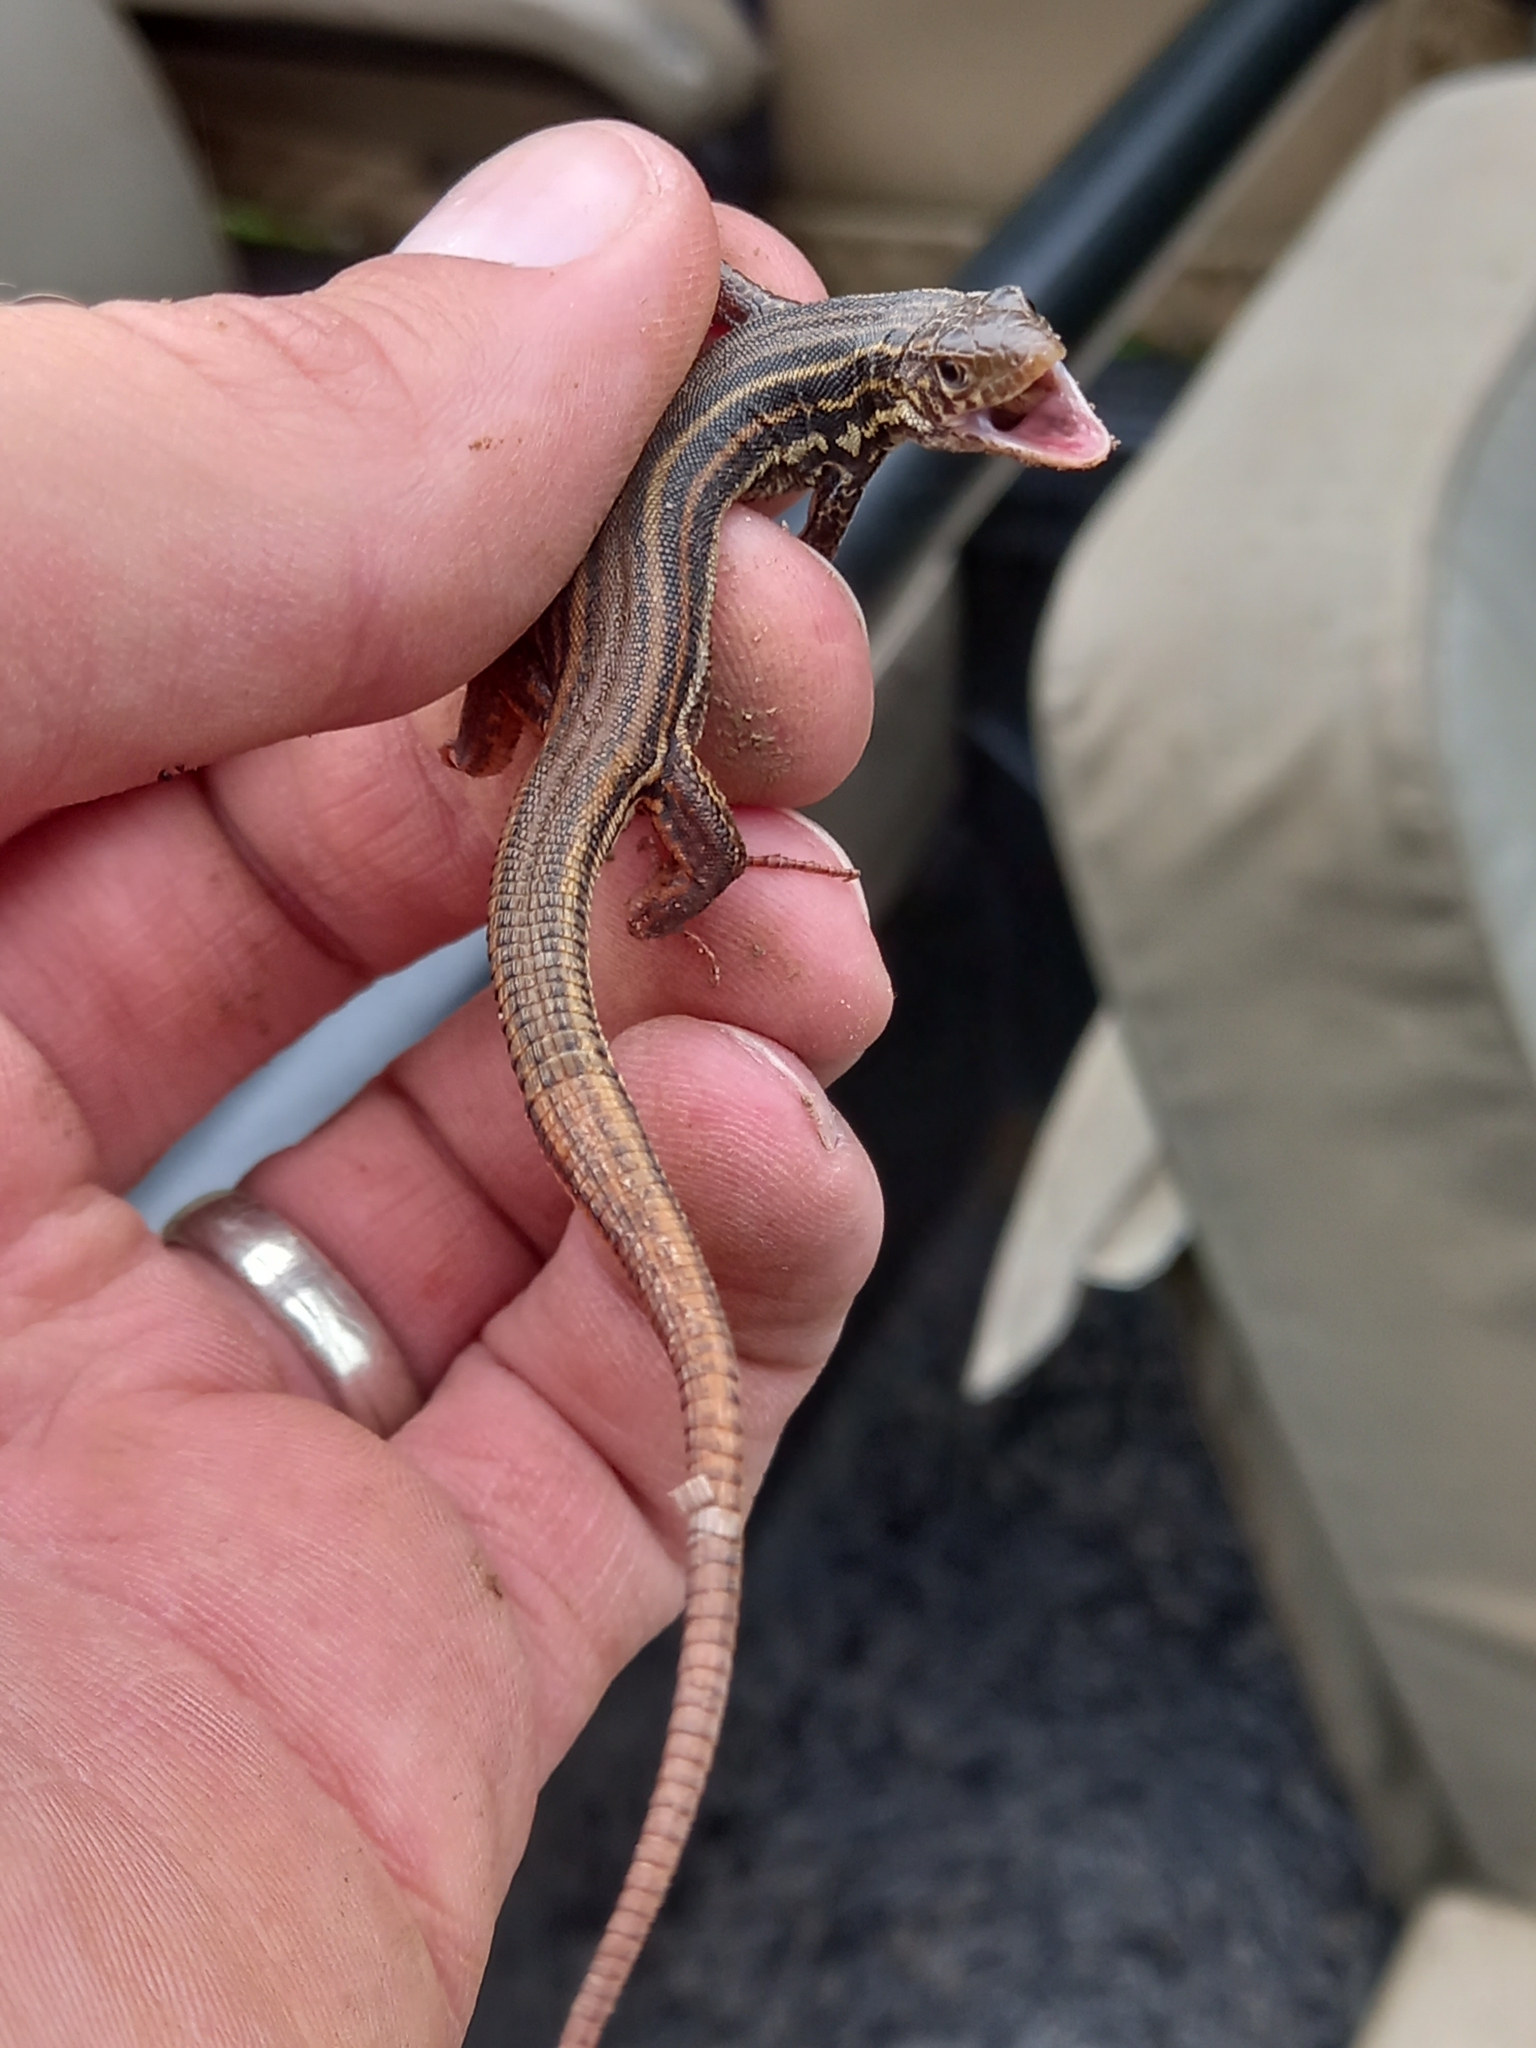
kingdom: Animalia
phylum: Chordata
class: Squamata
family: Lacertidae
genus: Nucras
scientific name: Nucras taeniolata
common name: Albany sandveld lizard
